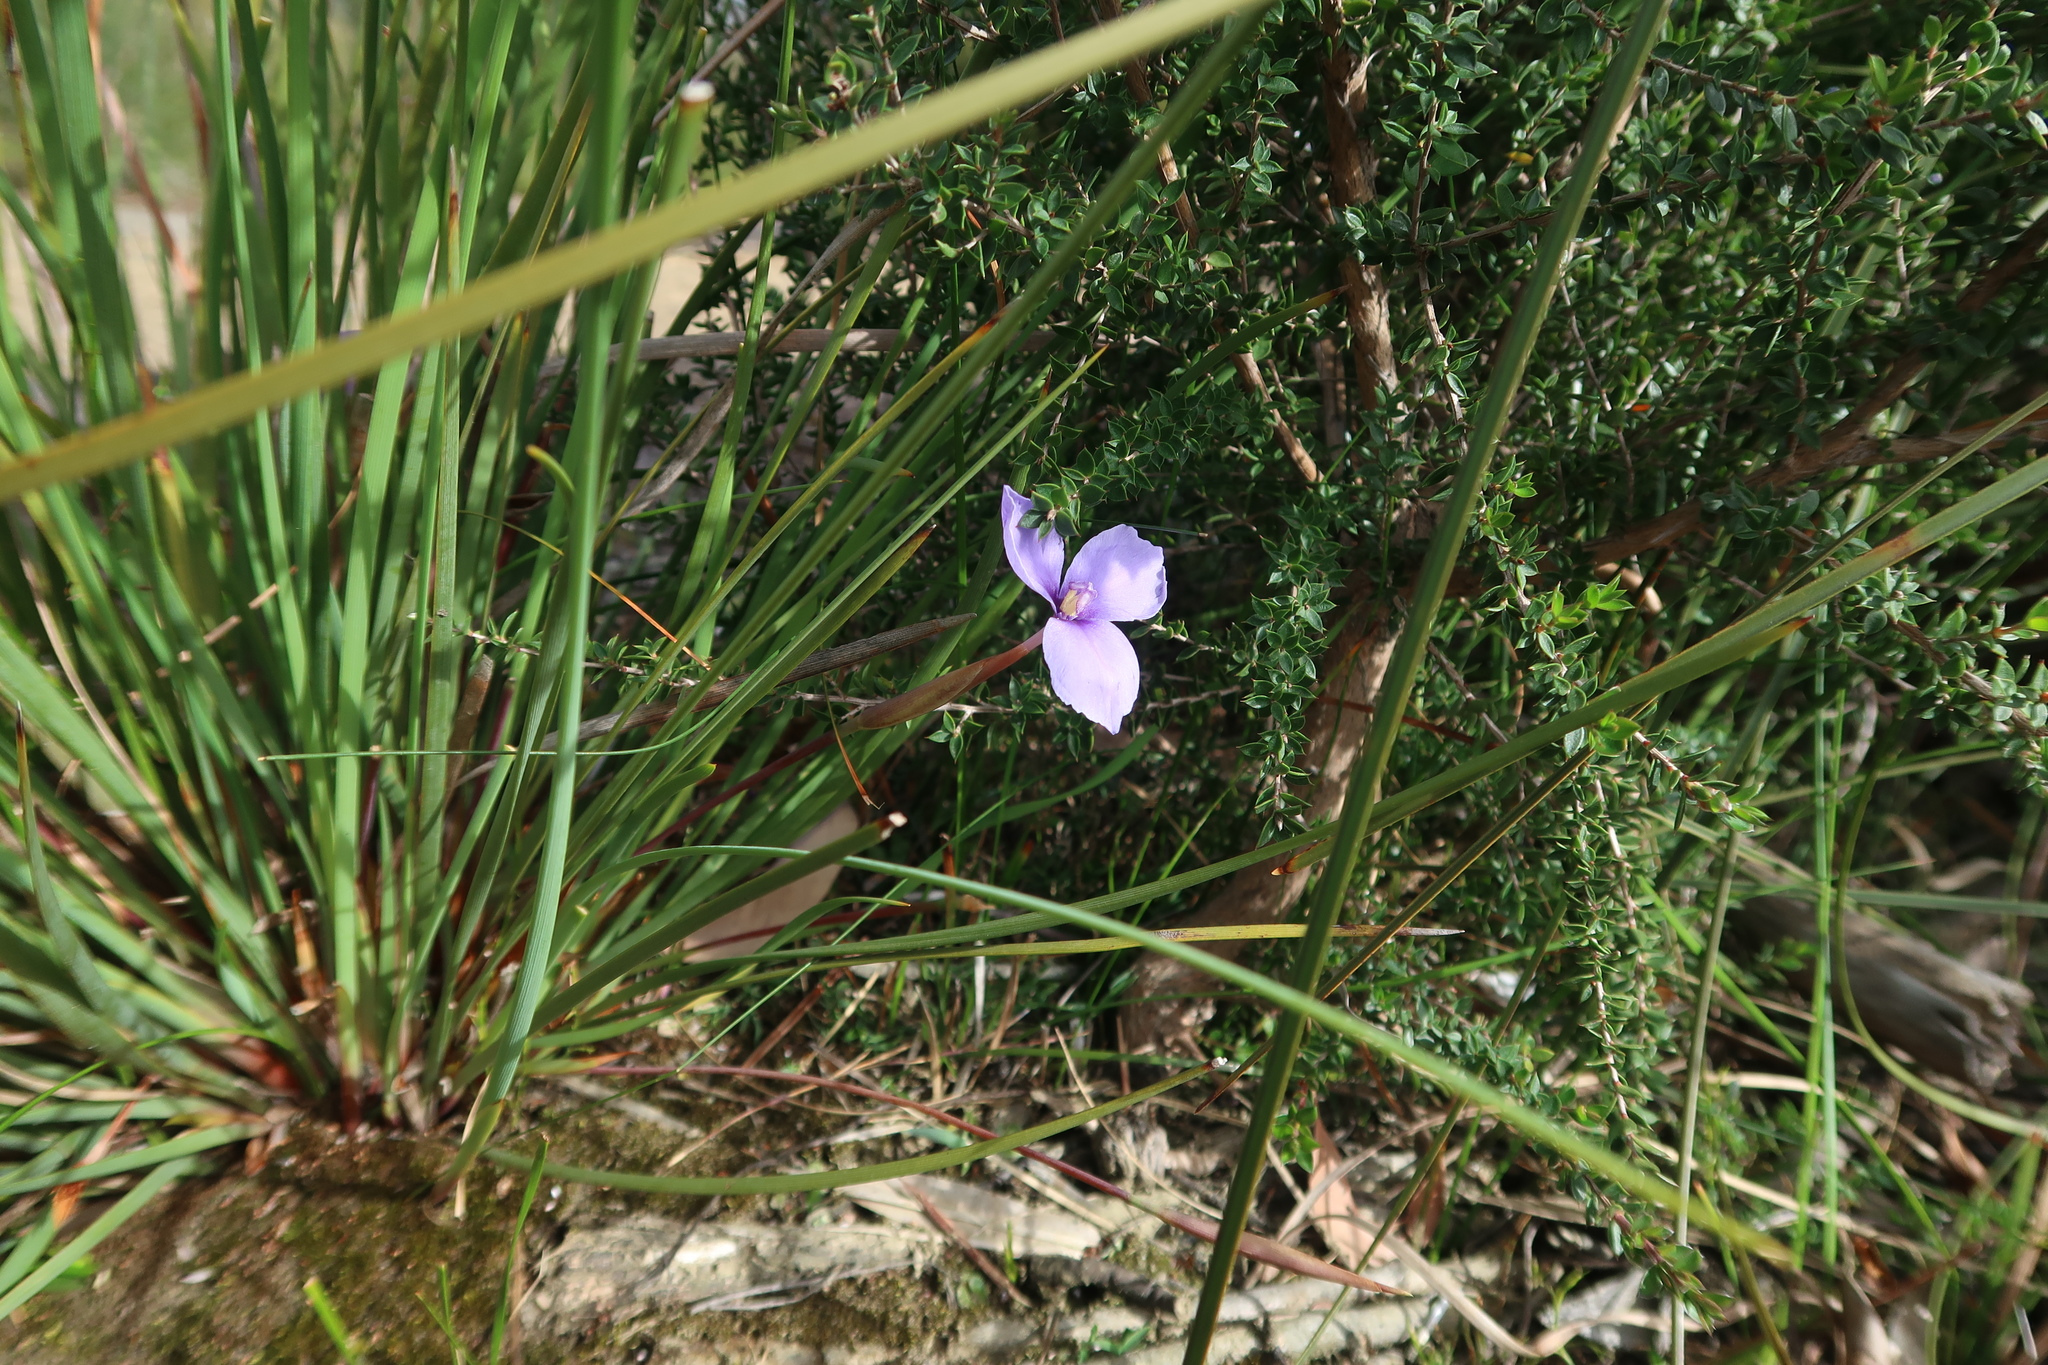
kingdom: Plantae
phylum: Tracheophyta
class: Liliopsida
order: Asparagales
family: Iridaceae
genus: Patersonia
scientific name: Patersonia fragilis
